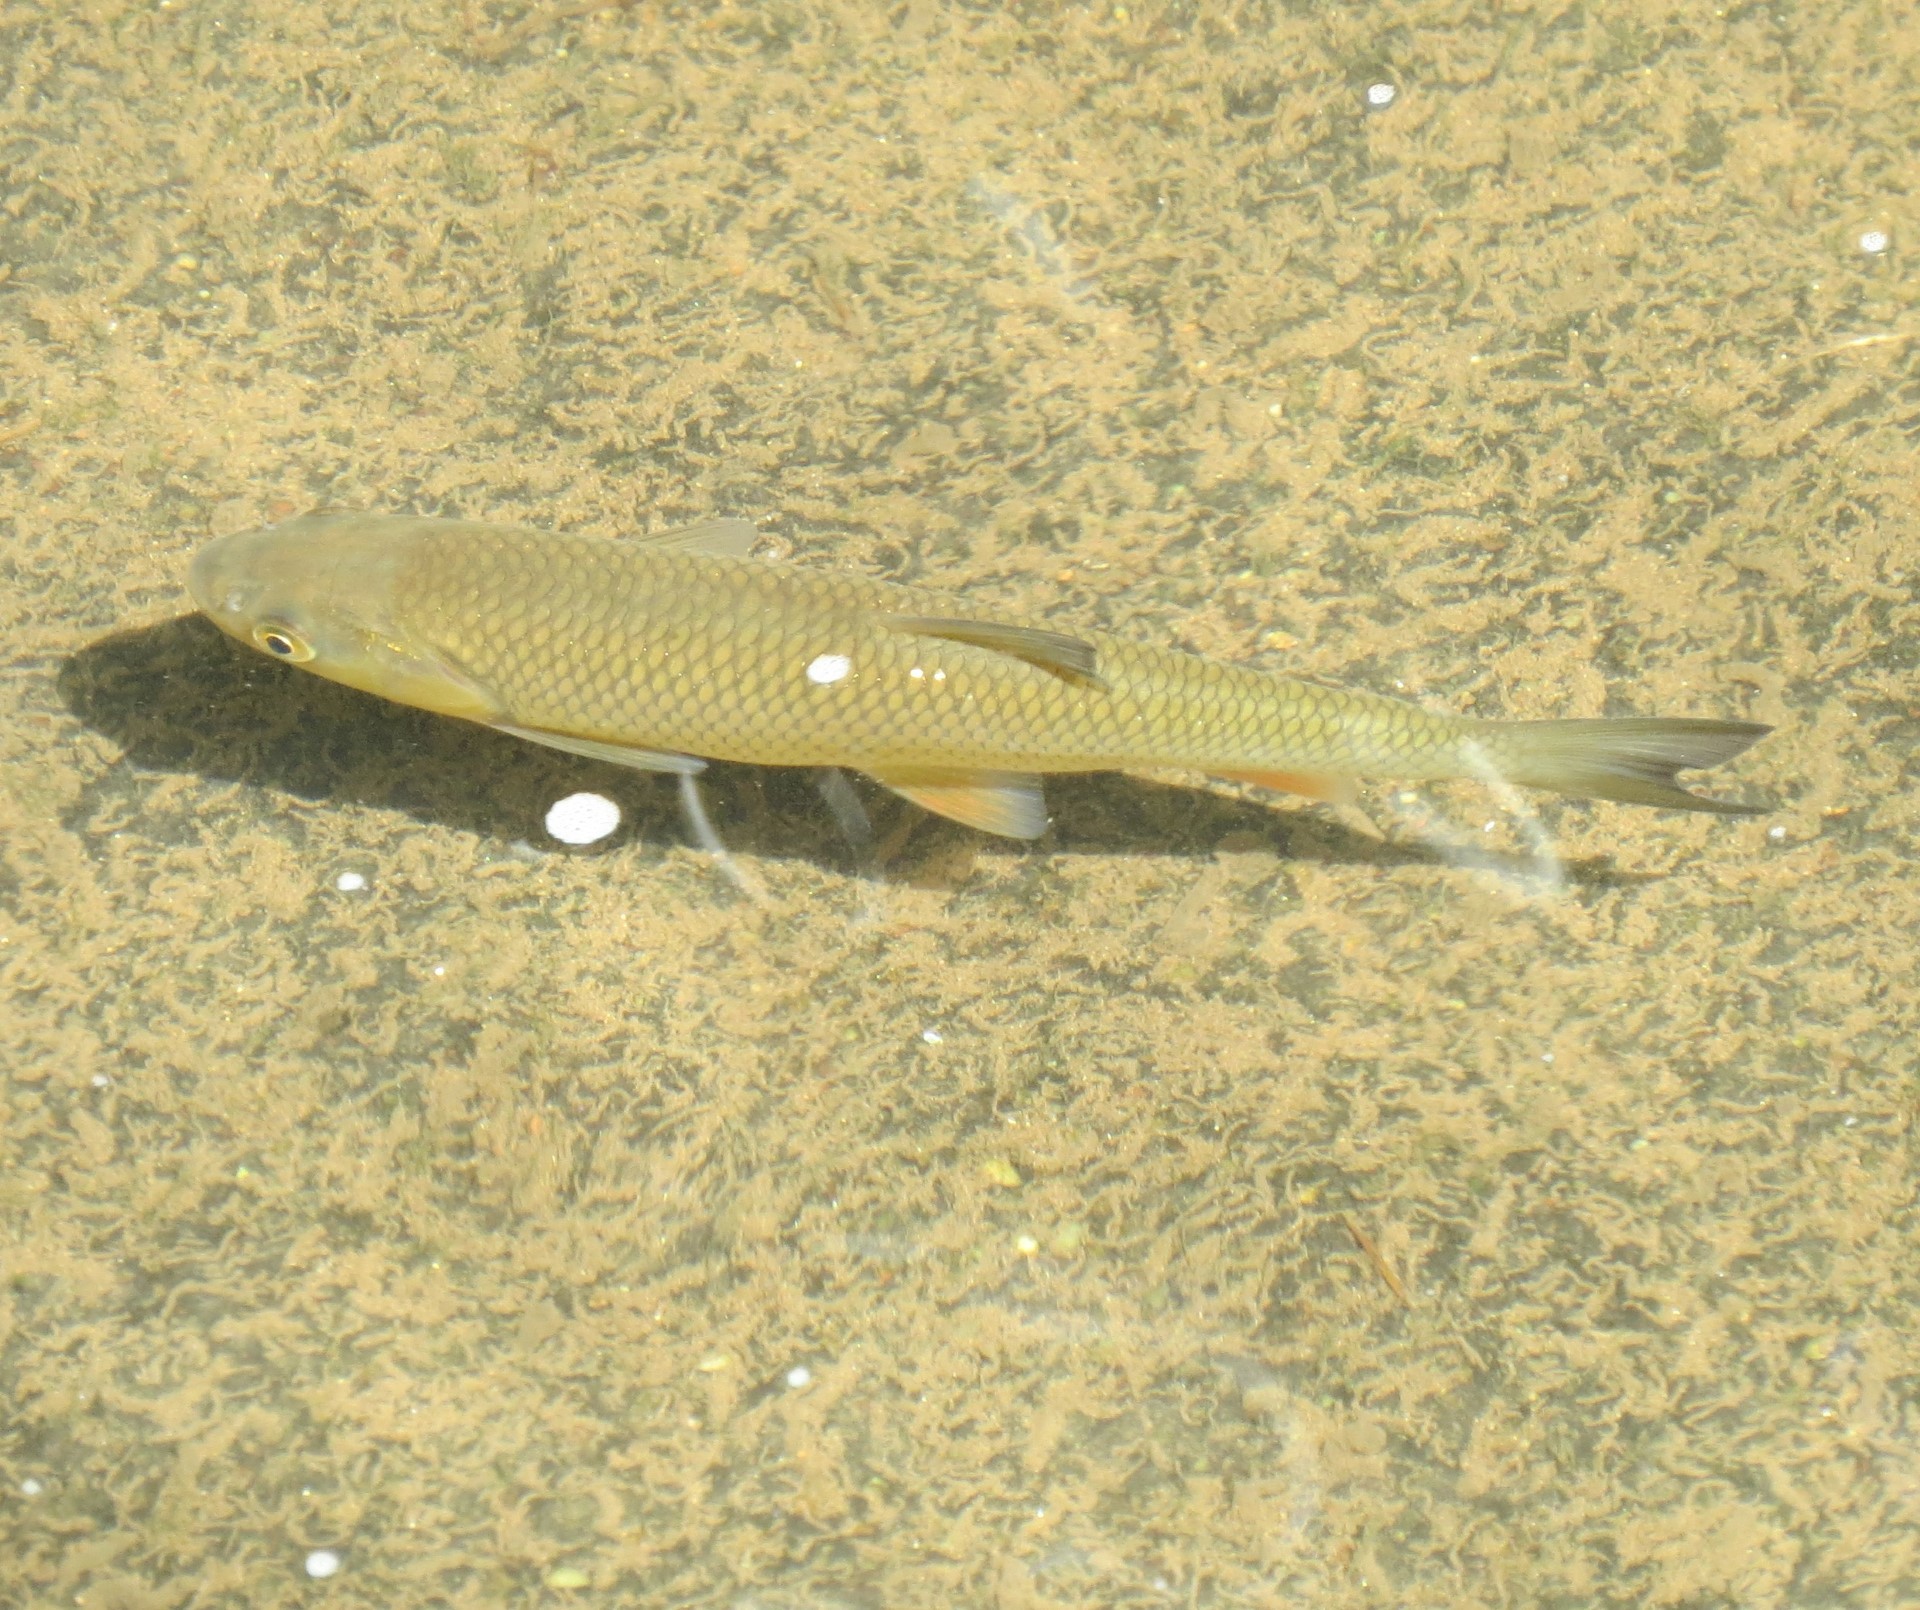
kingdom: Animalia
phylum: Chordata
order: Cypriniformes
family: Cyprinidae
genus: Squalius
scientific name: Squalius cephalus
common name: Chub
